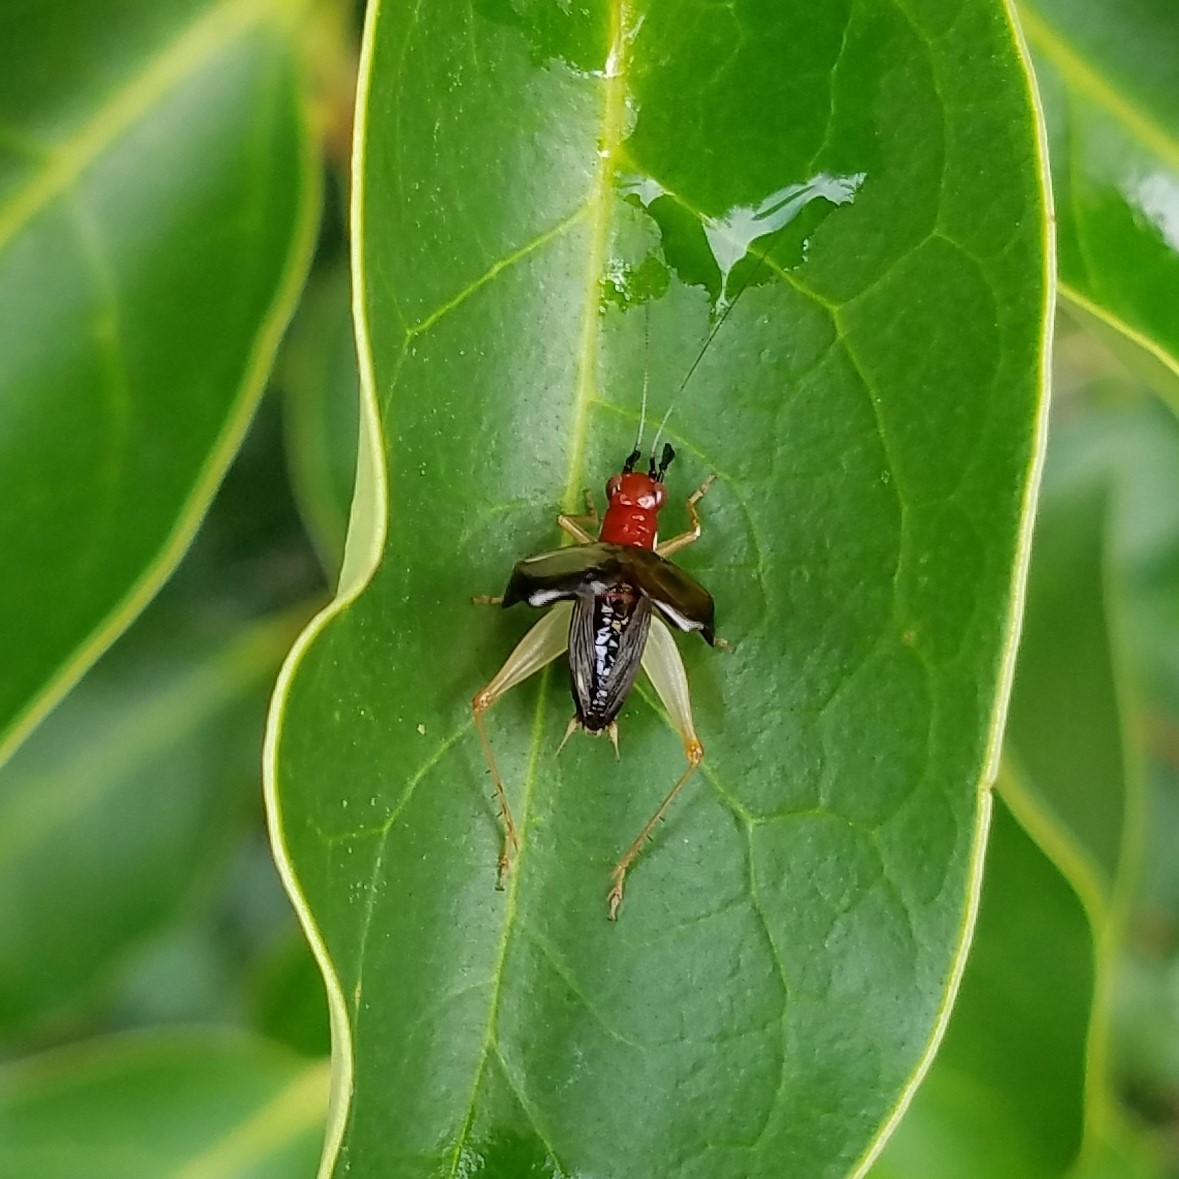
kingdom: Animalia
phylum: Arthropoda
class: Insecta
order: Orthoptera
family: Trigonidiidae
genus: Phyllopalpus
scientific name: Phyllopalpus pulchellus
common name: Handsome trig
